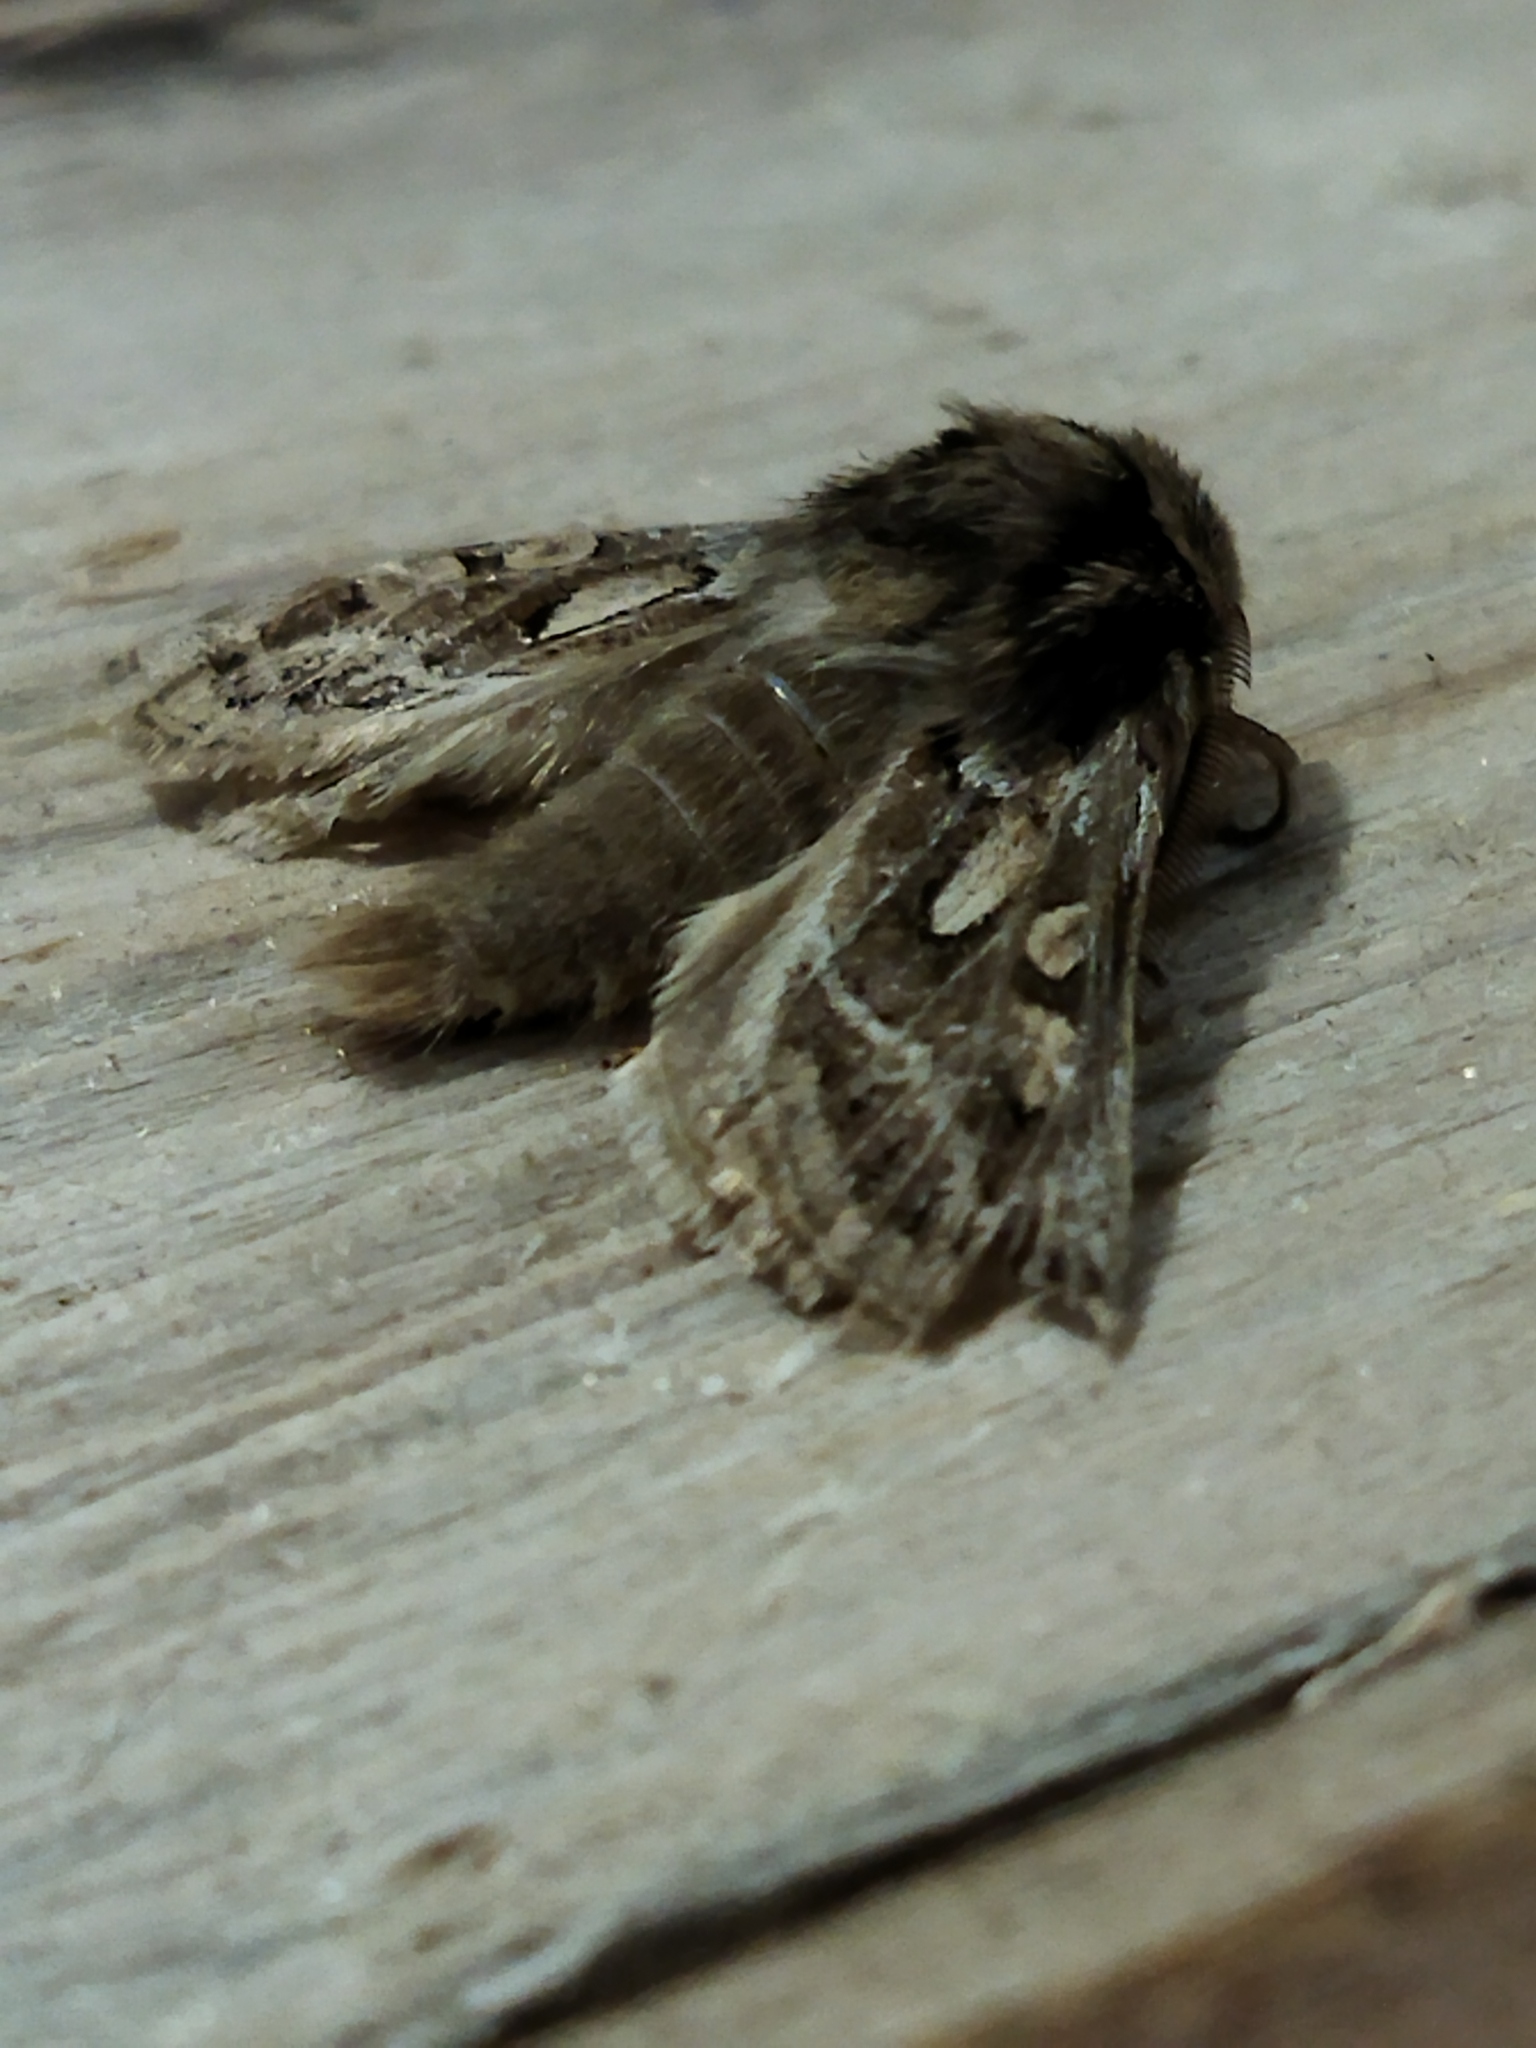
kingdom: Animalia
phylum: Arthropoda
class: Insecta
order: Lepidoptera
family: Noctuidae
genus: Ulochlaena
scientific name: Ulochlaena hirta
